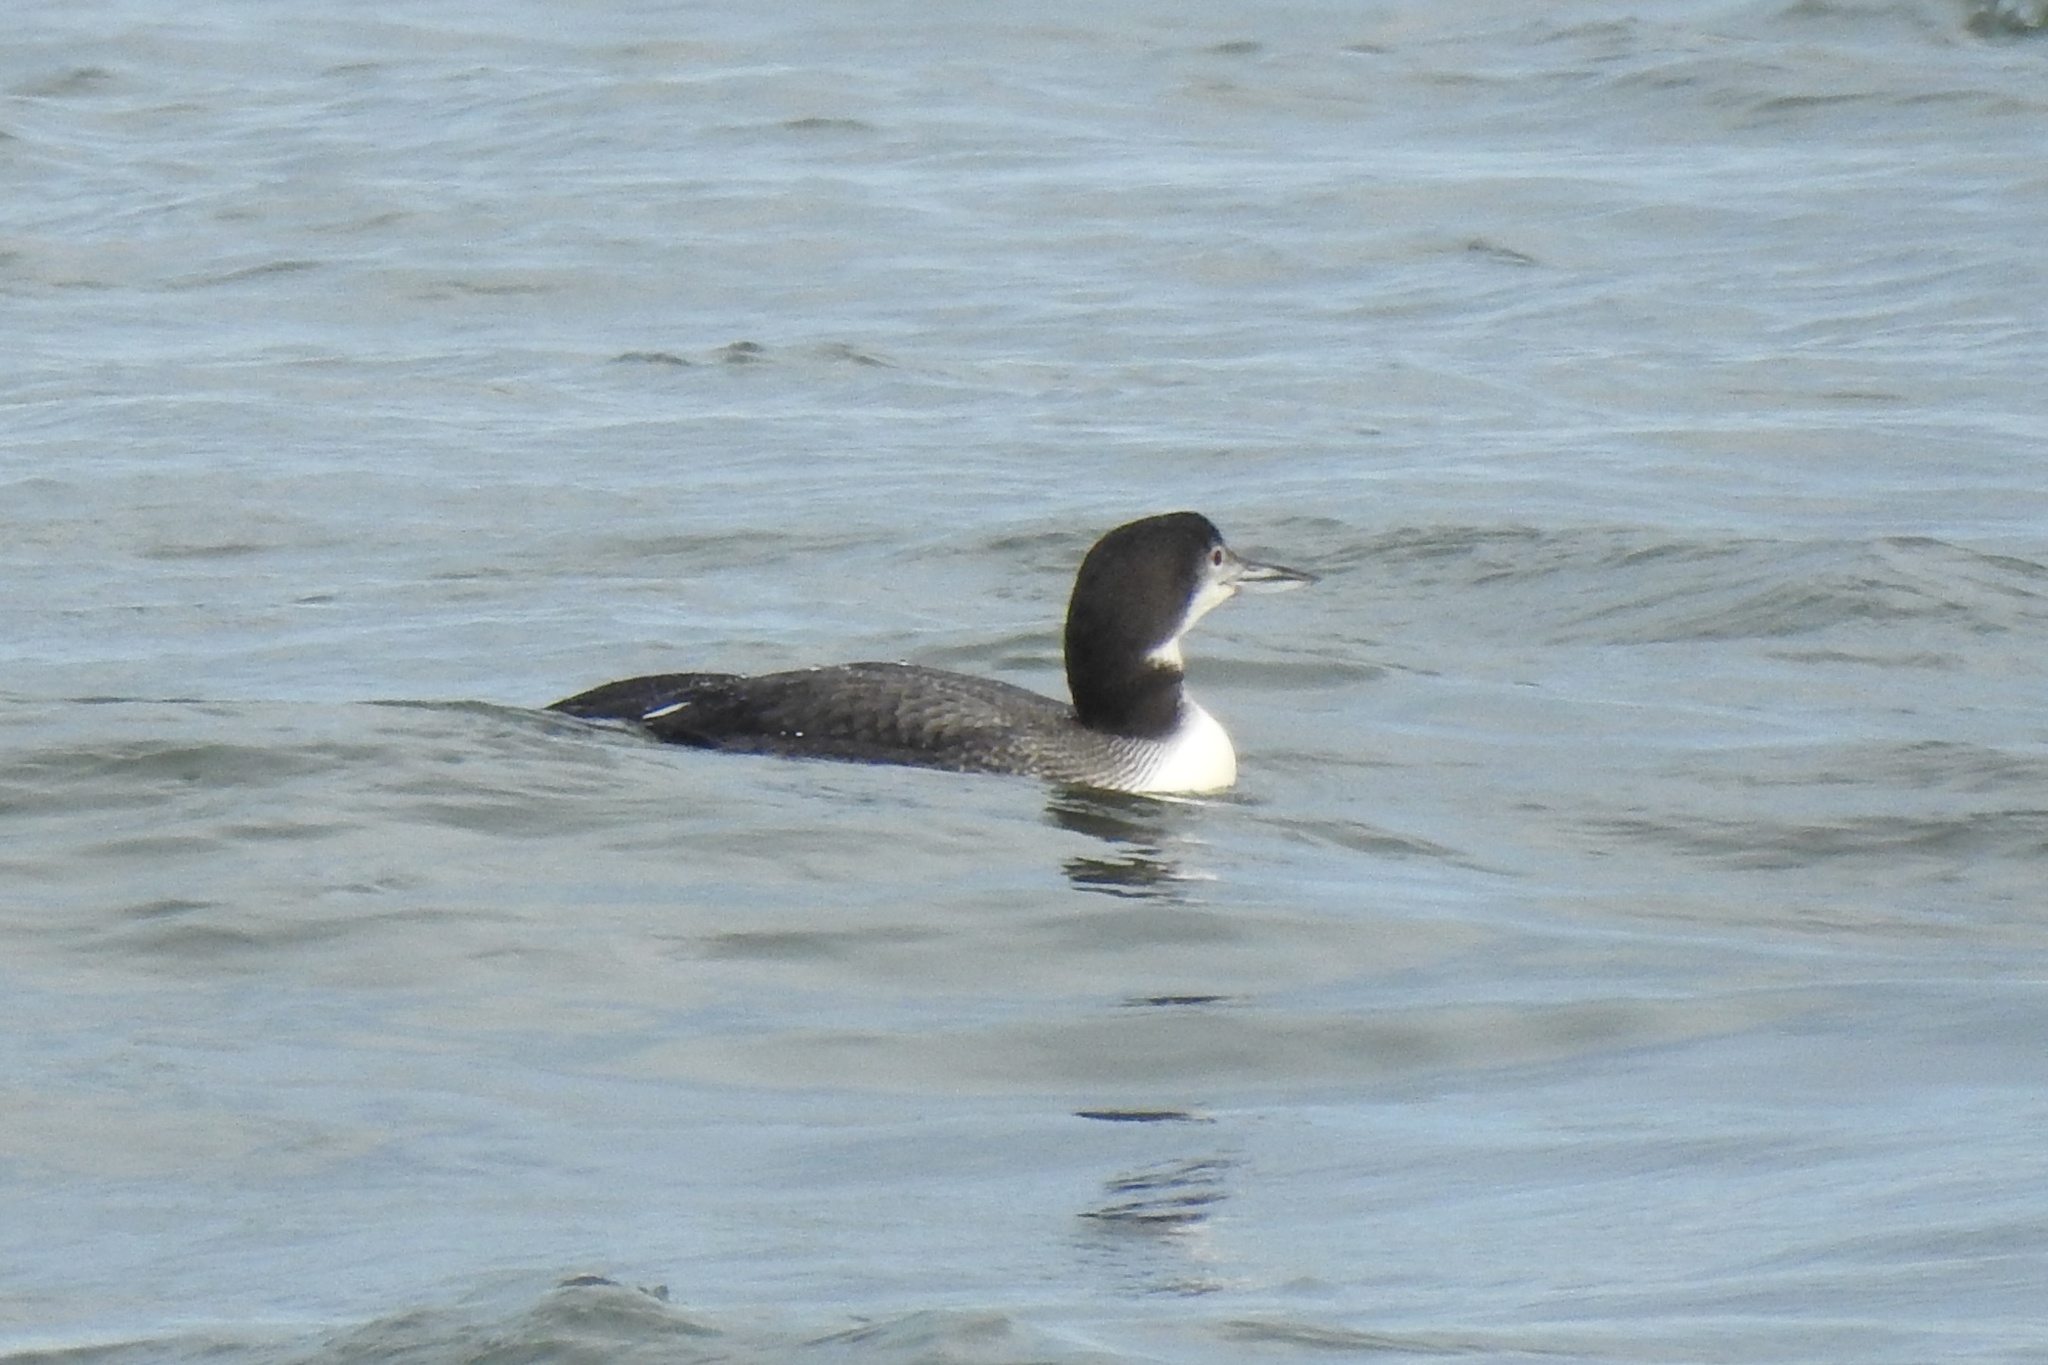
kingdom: Animalia
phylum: Chordata
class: Aves
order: Gaviiformes
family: Gaviidae
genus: Gavia
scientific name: Gavia immer
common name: Common loon
